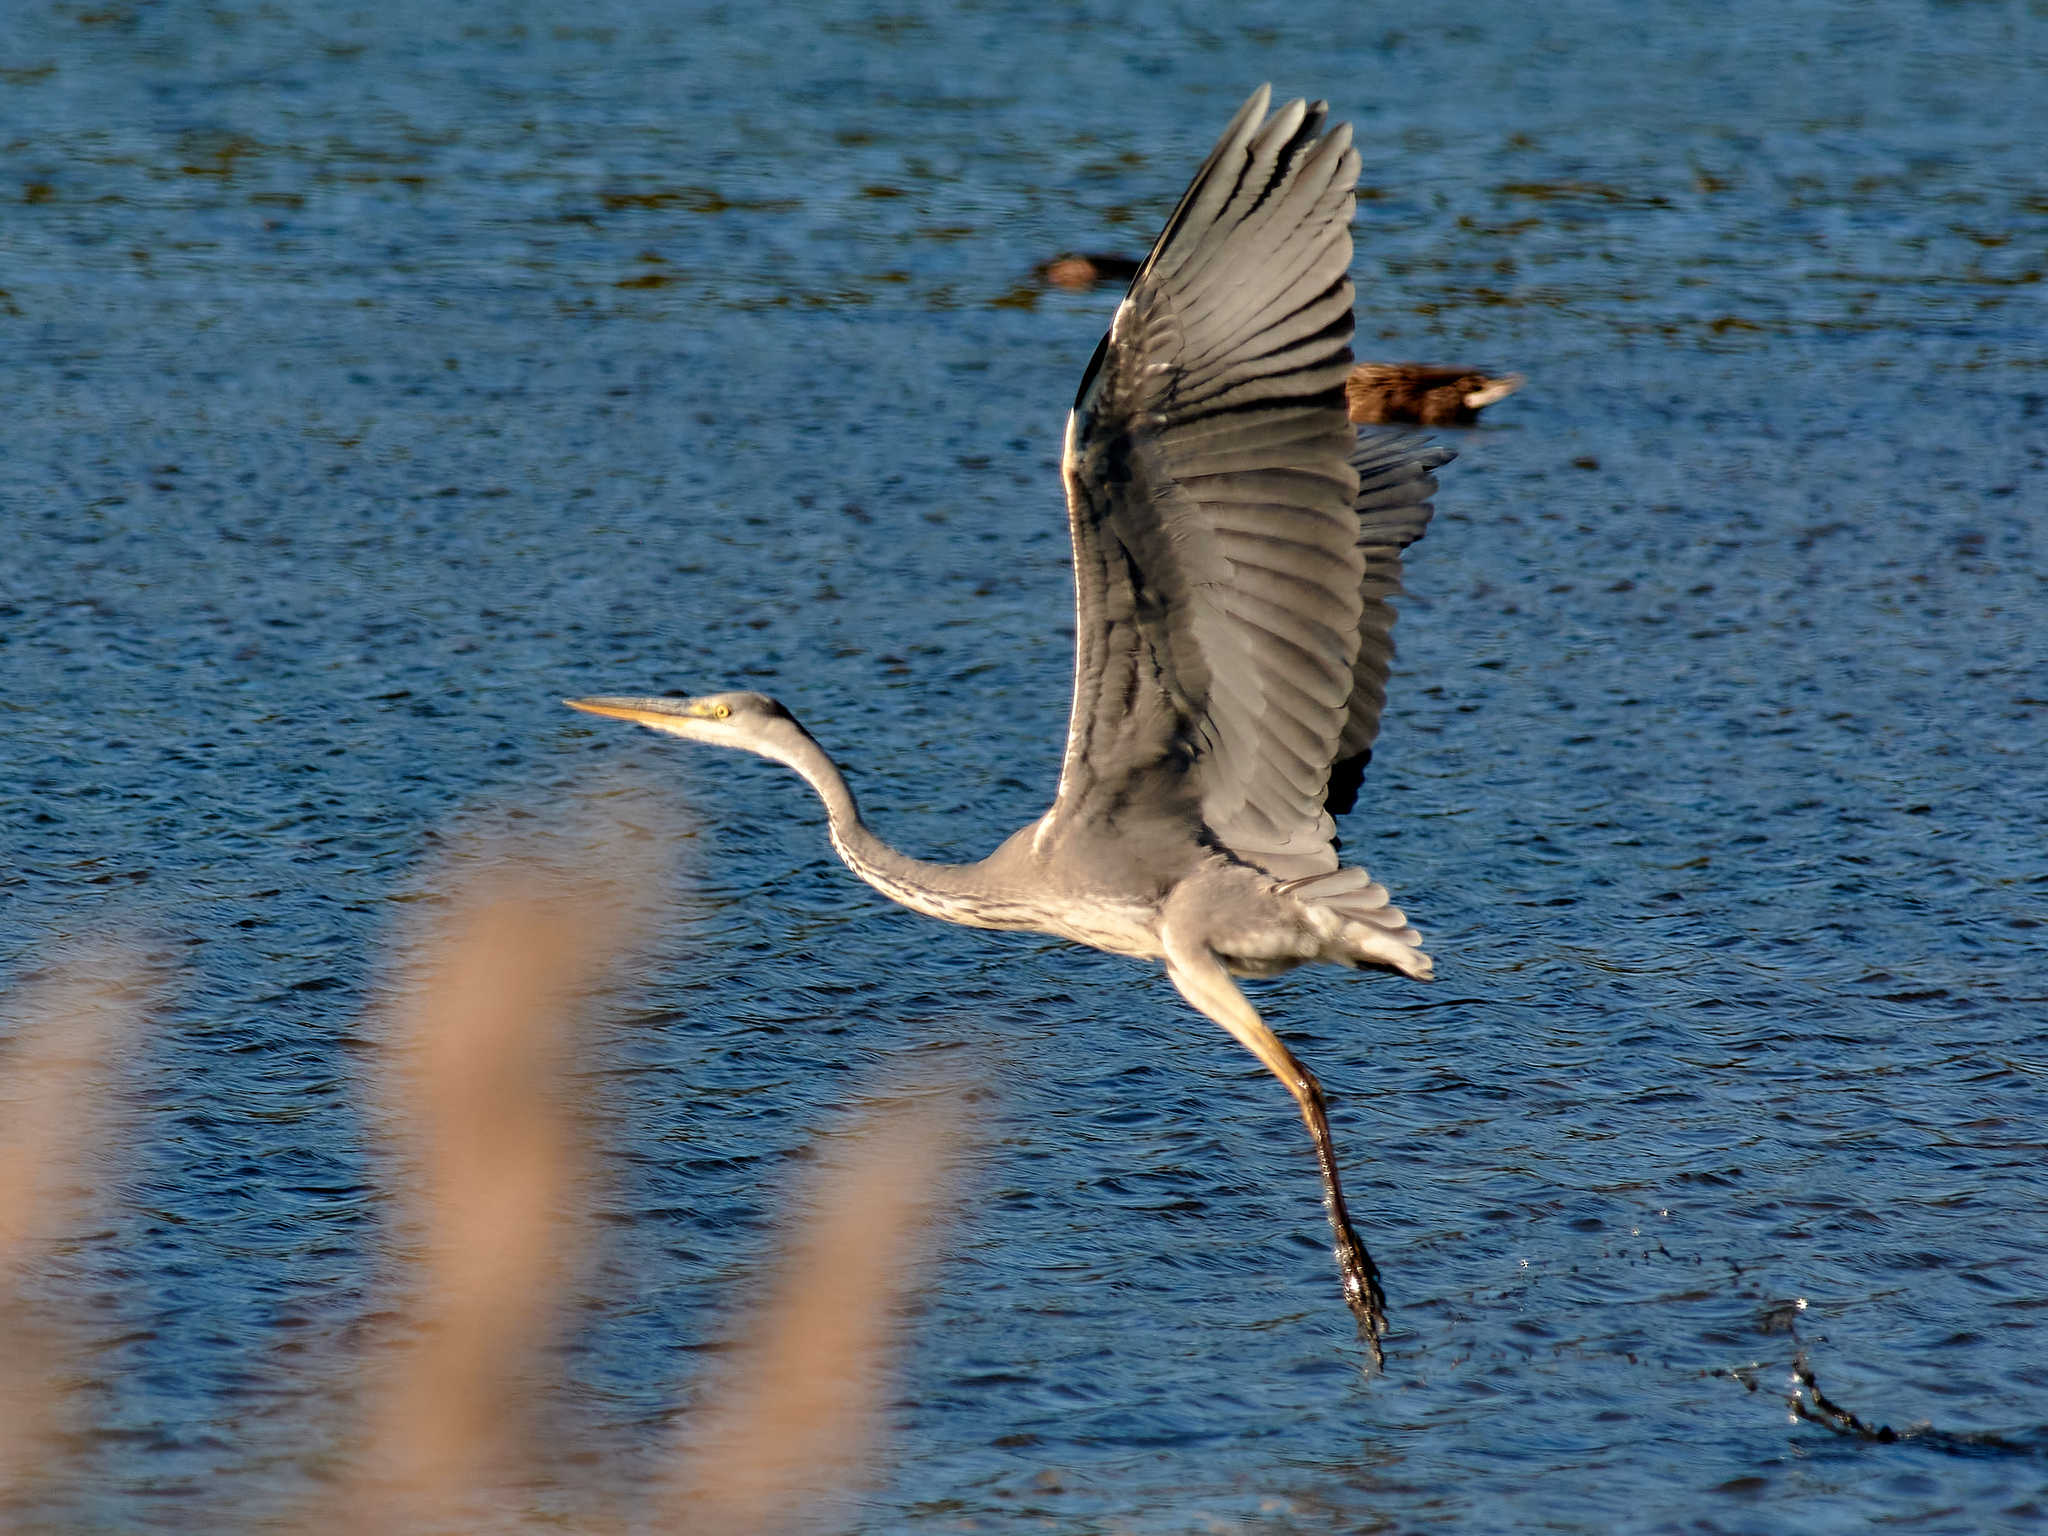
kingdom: Animalia
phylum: Chordata
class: Aves
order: Pelecaniformes
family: Ardeidae
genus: Ardea
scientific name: Ardea cinerea
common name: Grey heron
